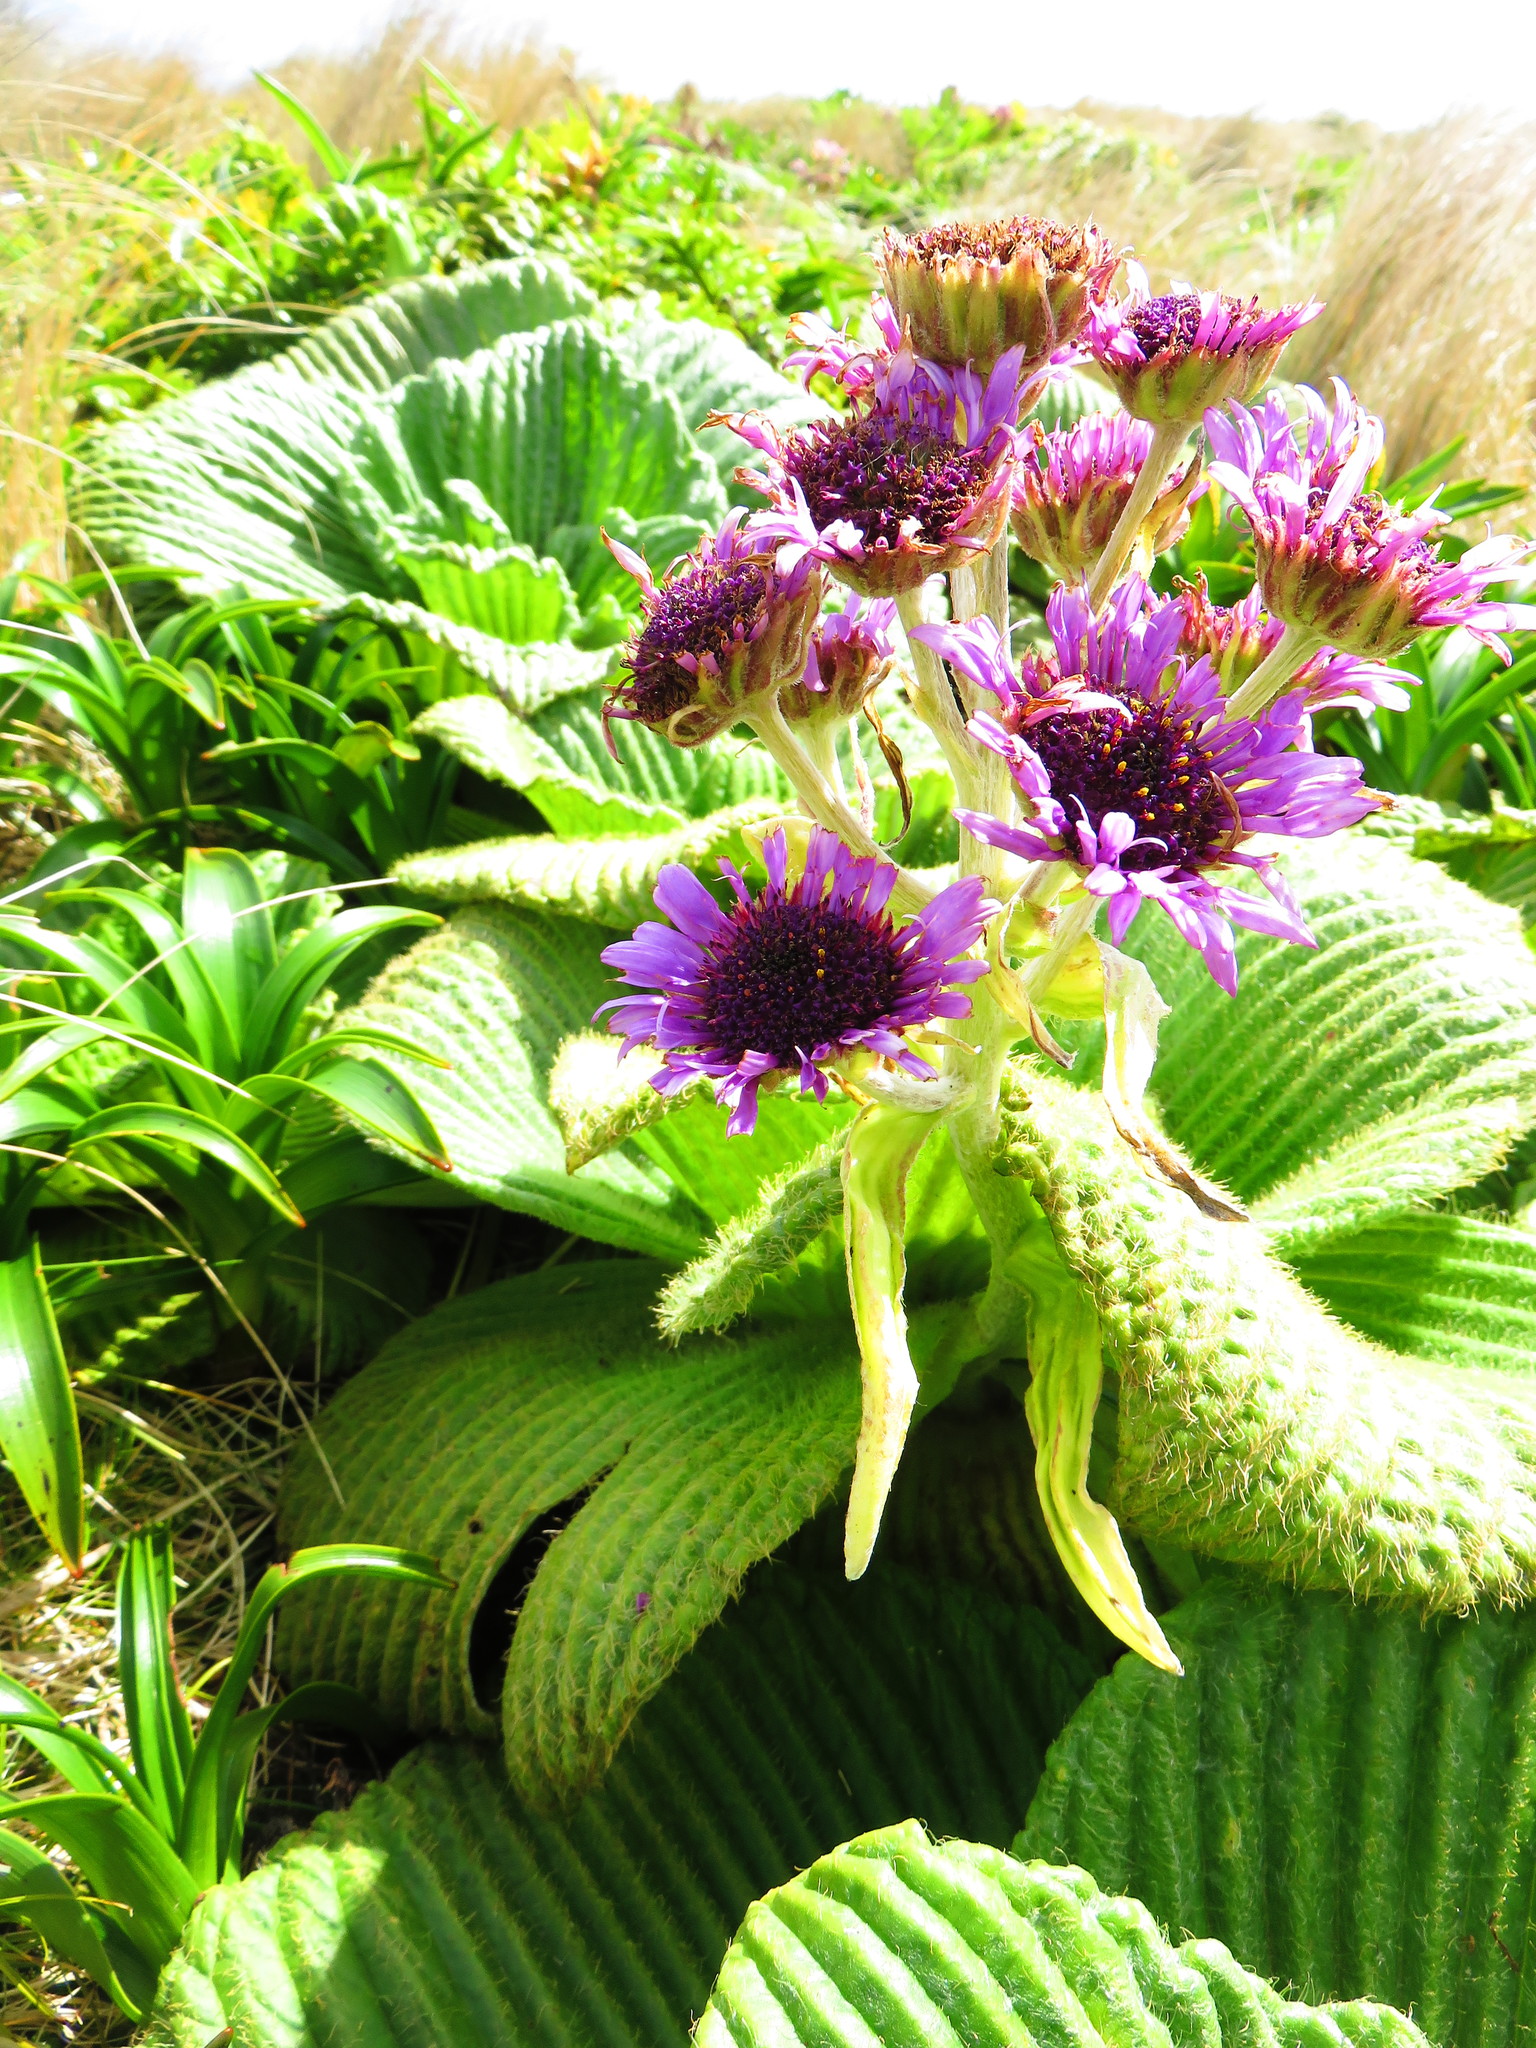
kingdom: Plantae
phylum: Tracheophyta
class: Magnoliopsida
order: Asterales
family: Asteraceae
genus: Pleurophyllum
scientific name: Pleurophyllum speciosum
